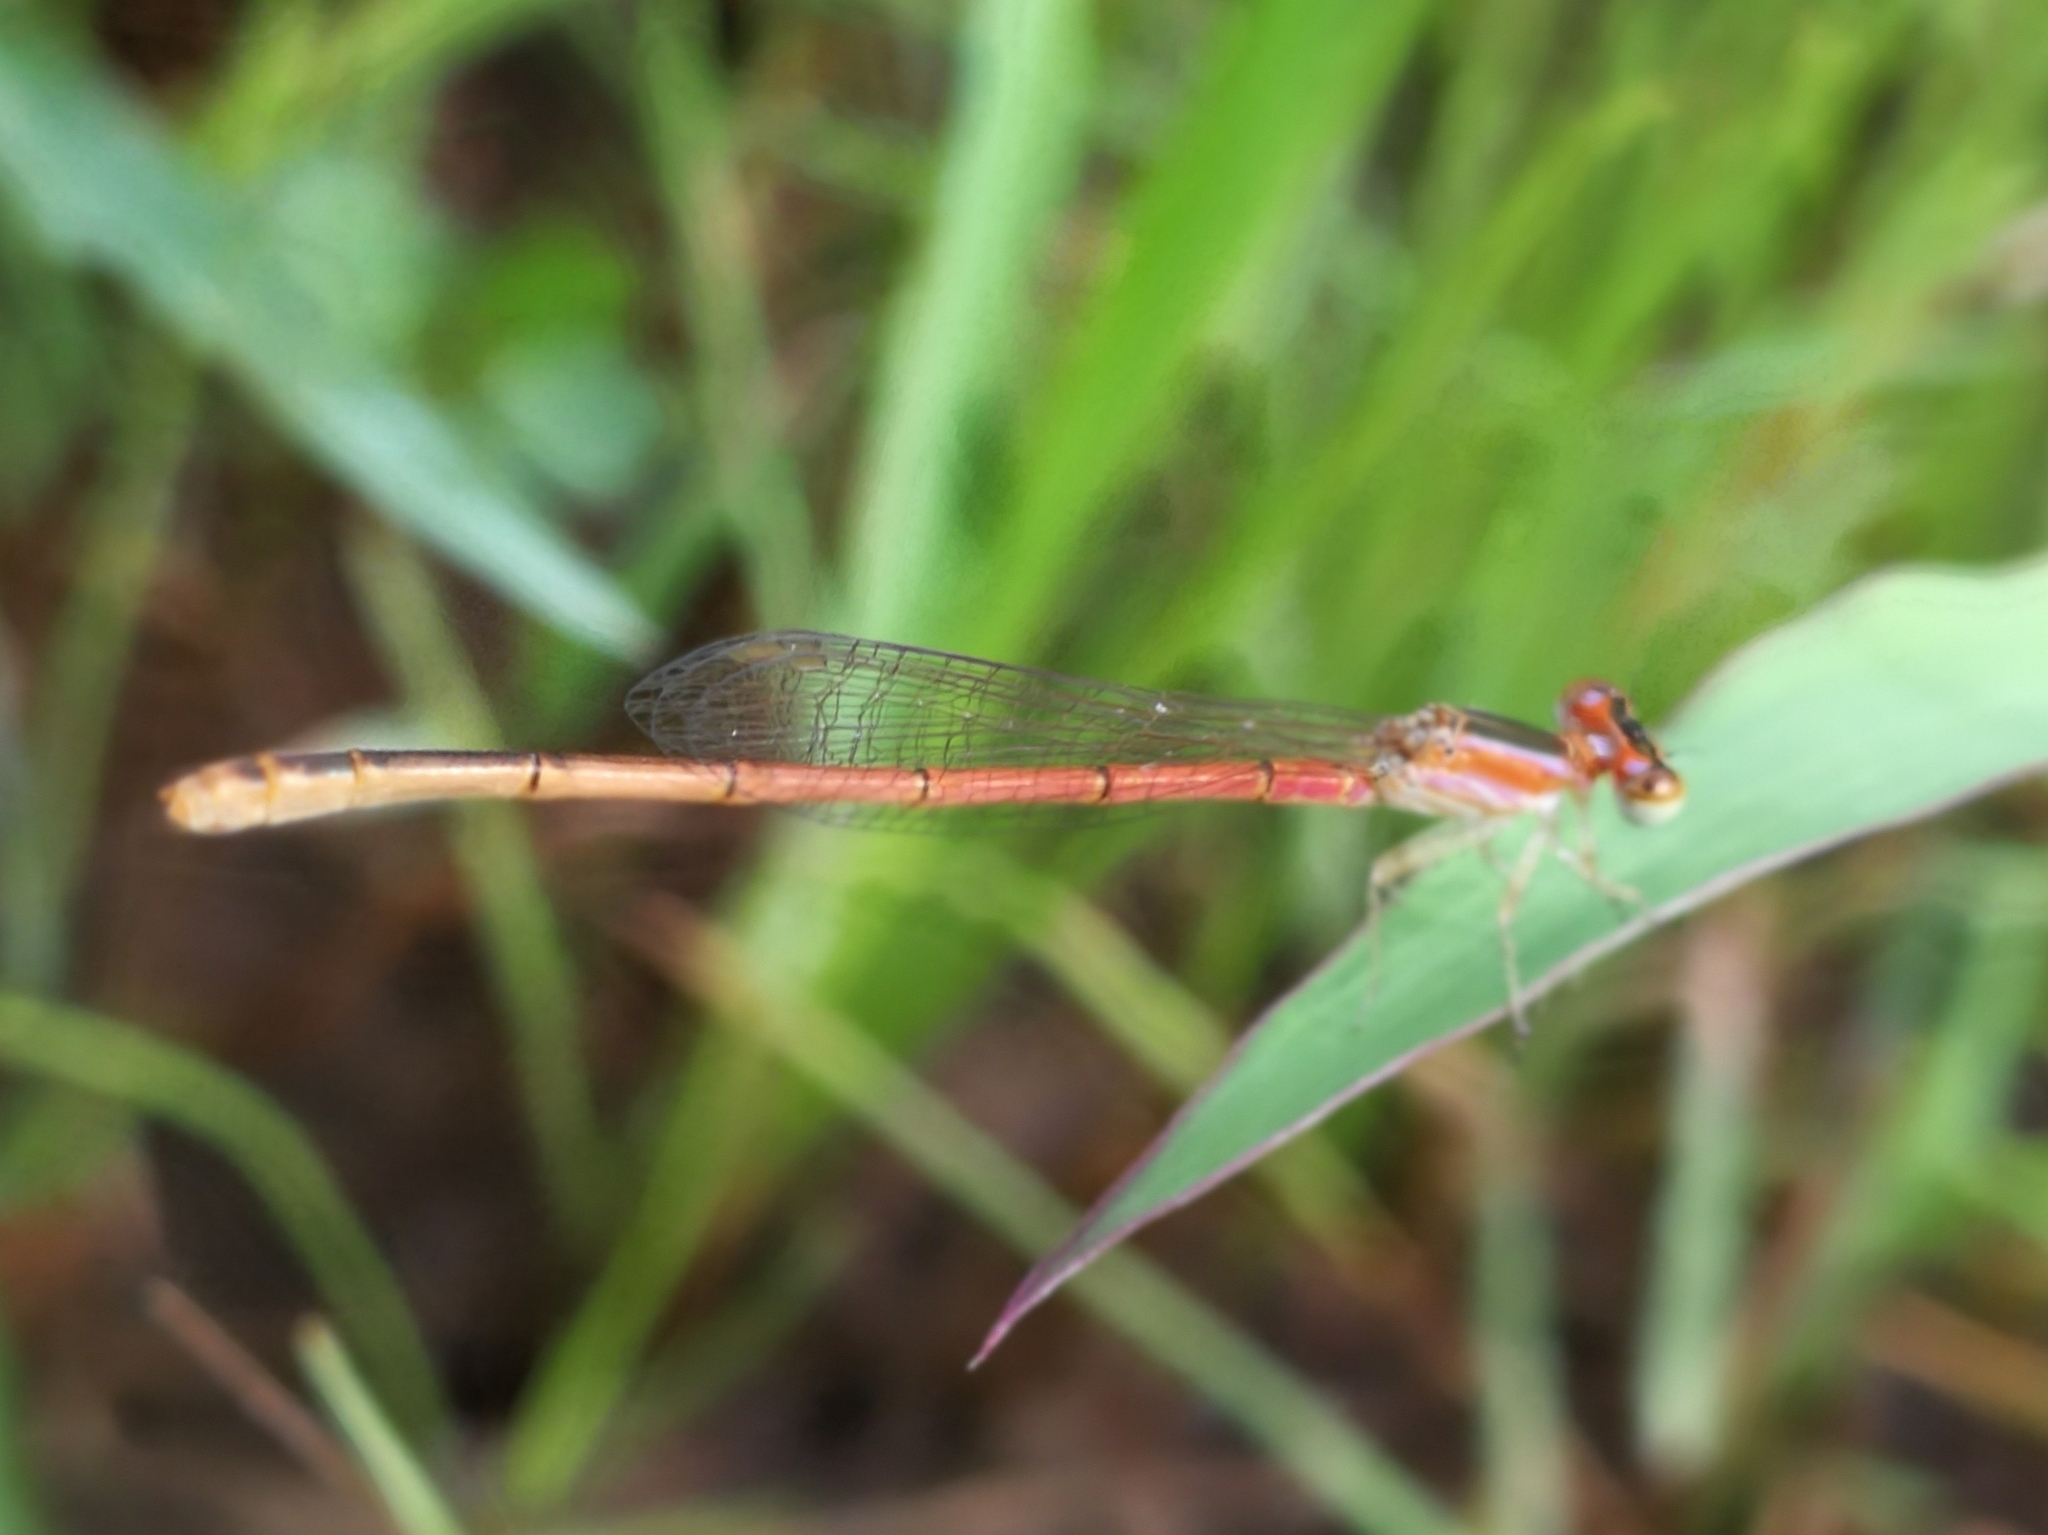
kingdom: Animalia
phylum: Arthropoda
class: Insecta
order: Odonata
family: Coenagrionidae
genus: Agriocnemis
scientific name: Agriocnemis pygmaea
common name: Pygmy wisp
